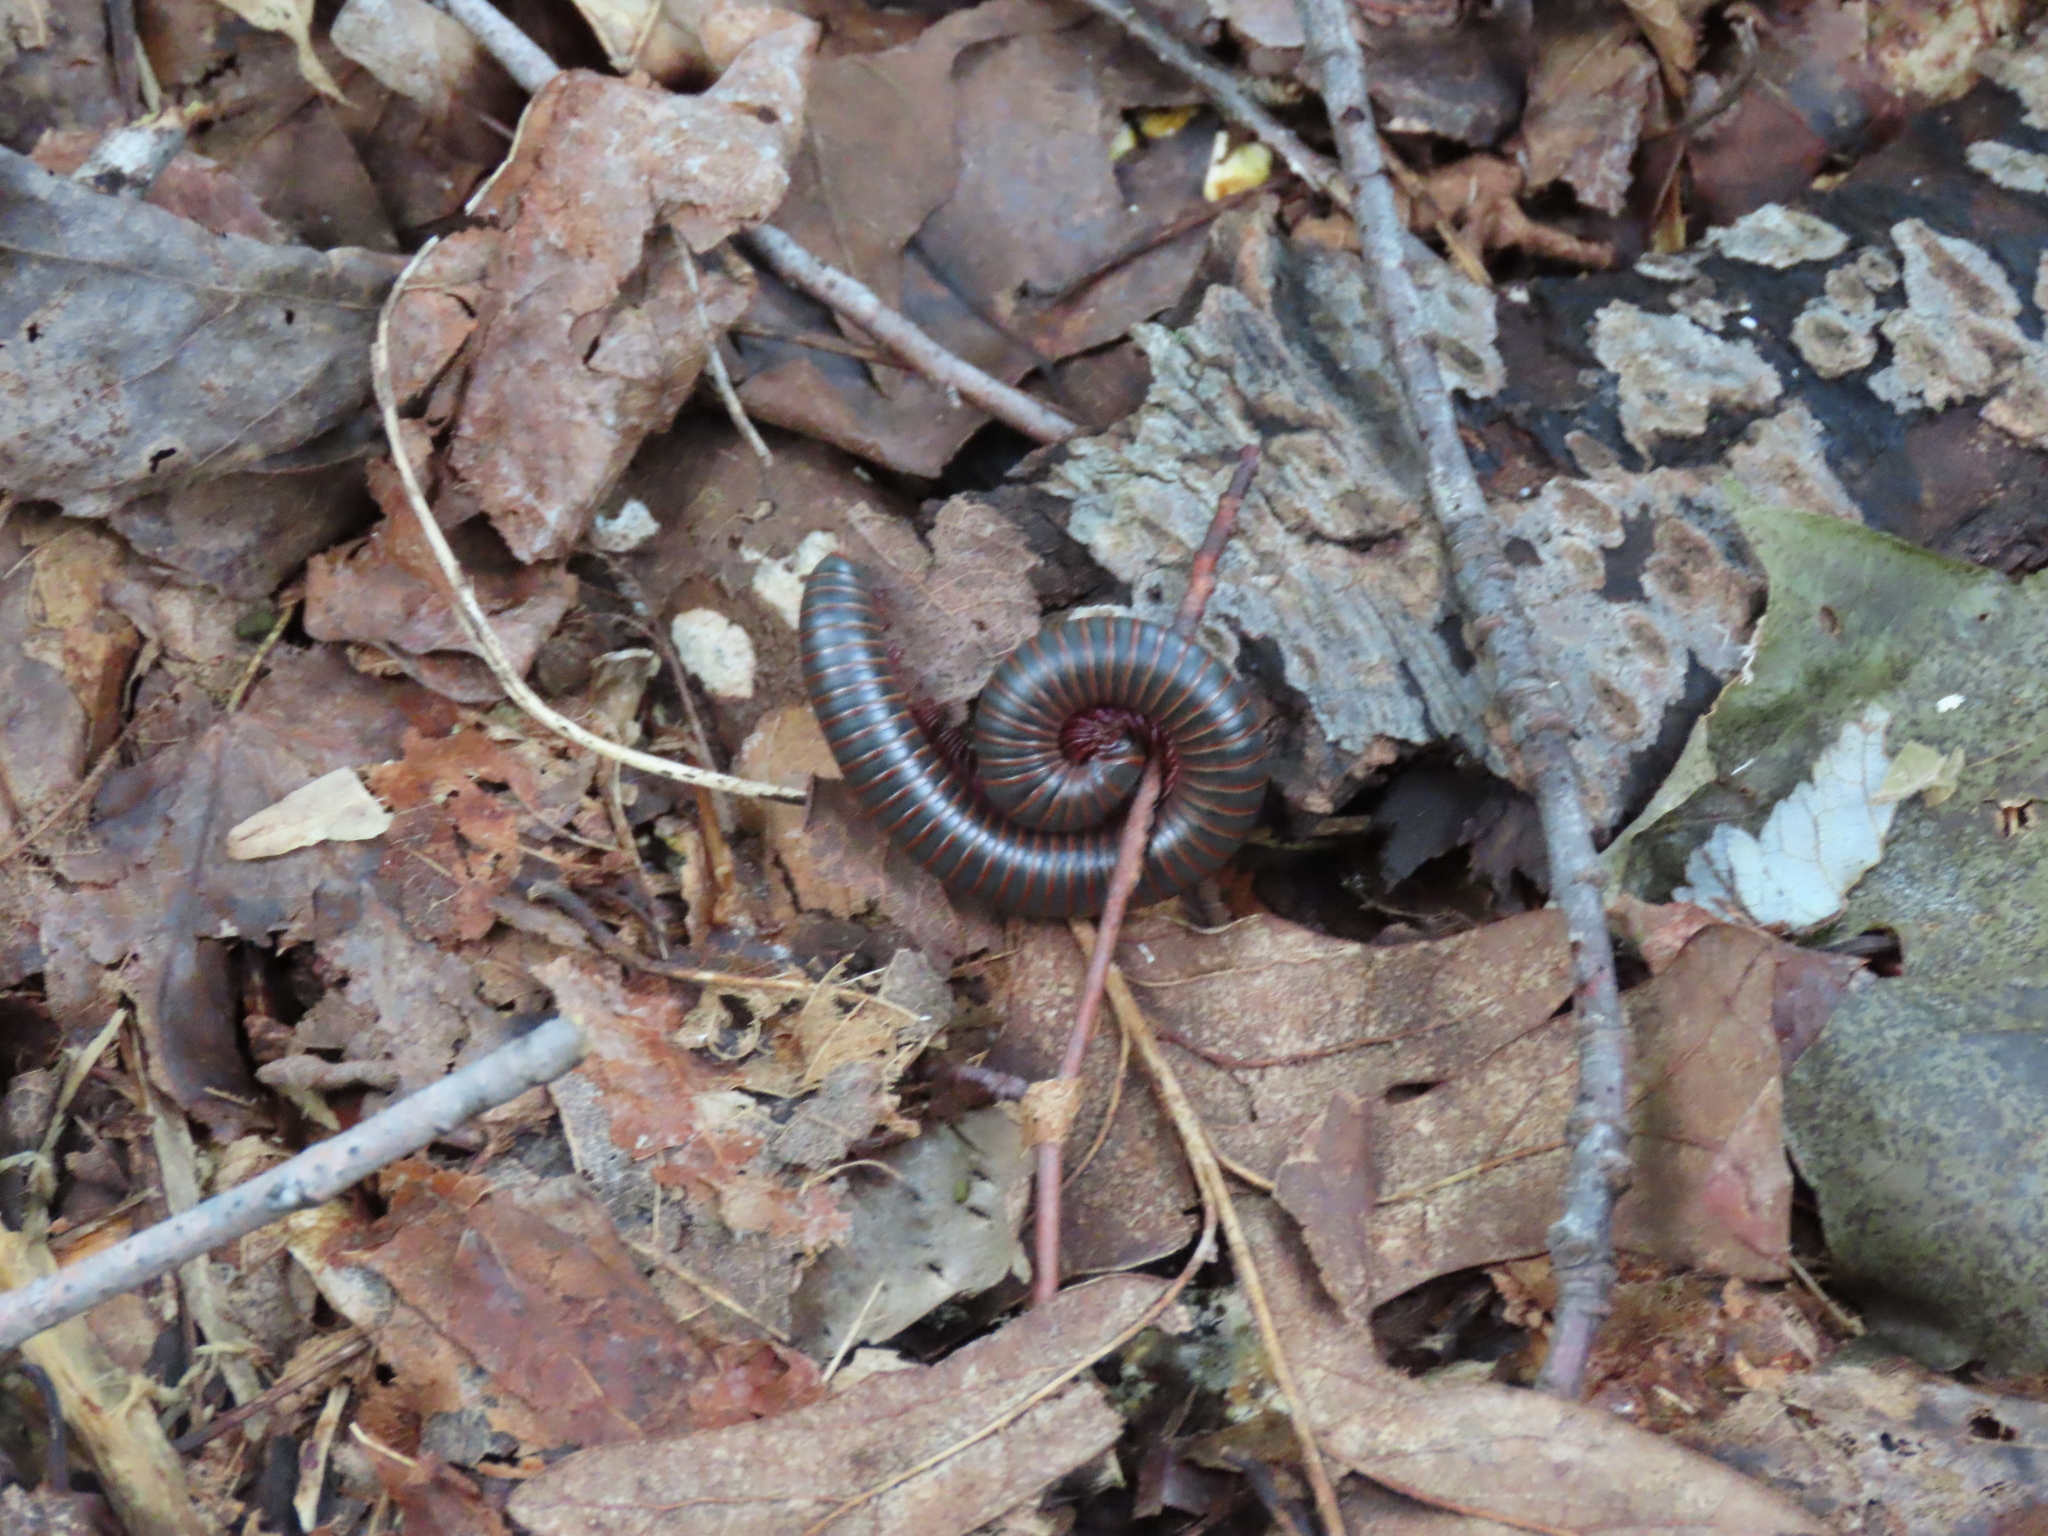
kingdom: Animalia
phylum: Arthropoda
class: Diplopoda
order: Spirobolida
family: Spirobolidae
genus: Narceus
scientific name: Narceus
